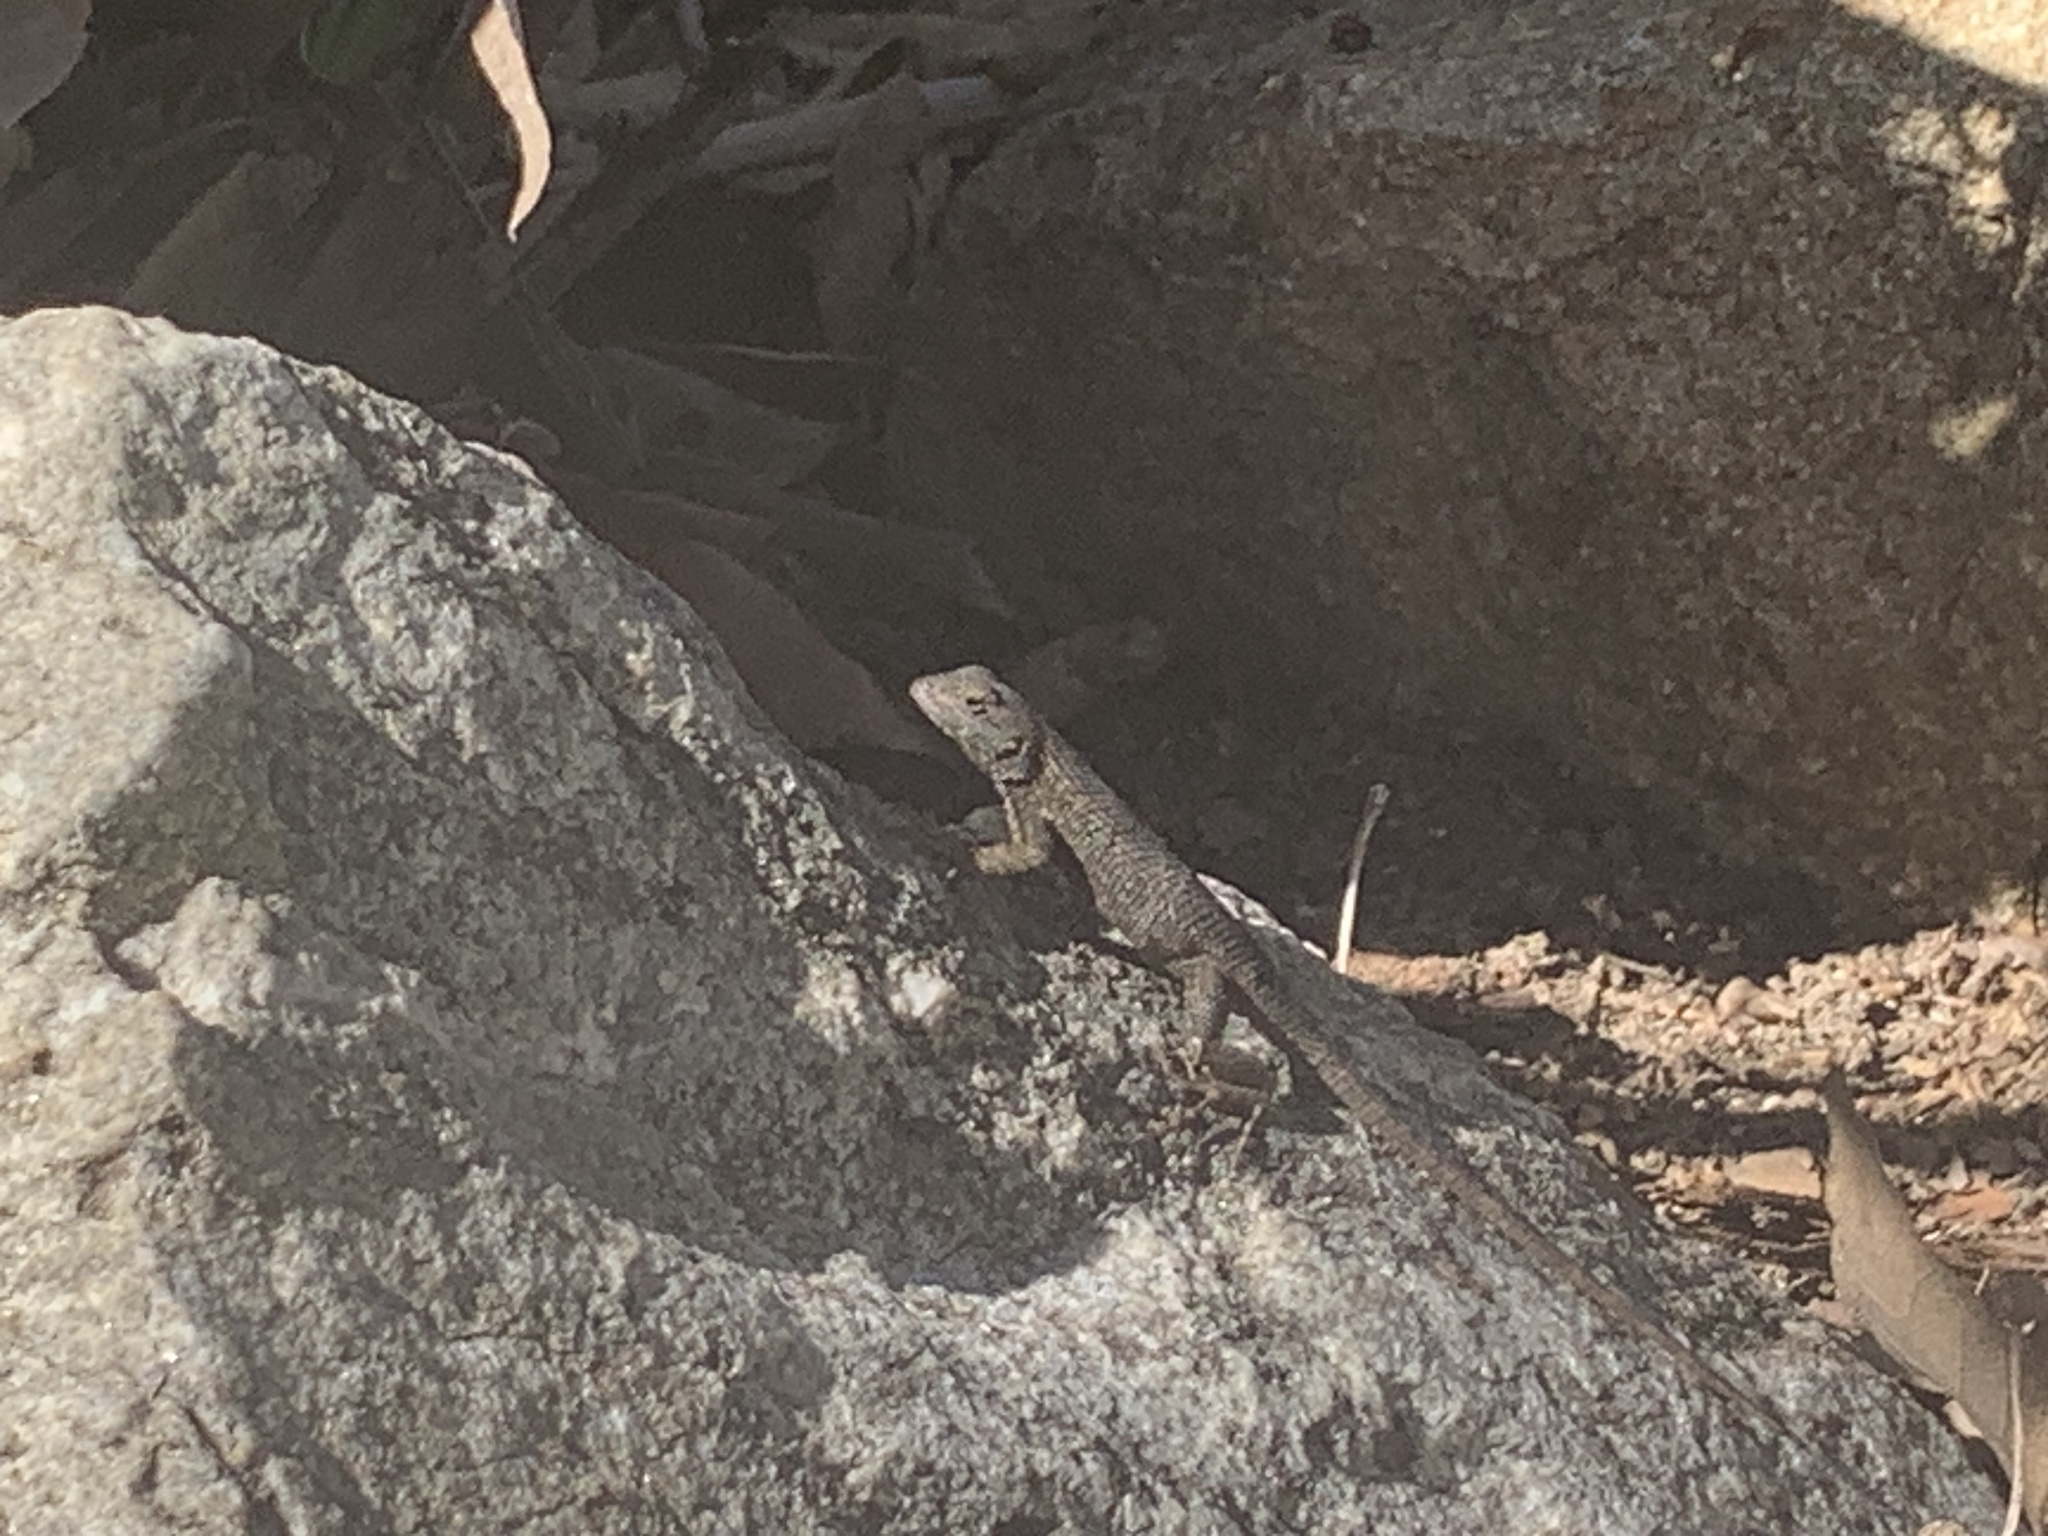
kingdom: Animalia
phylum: Chordata
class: Squamata
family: Phrynosomatidae
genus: Sceloporus
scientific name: Sceloporus occidentalis
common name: Western fence lizard
